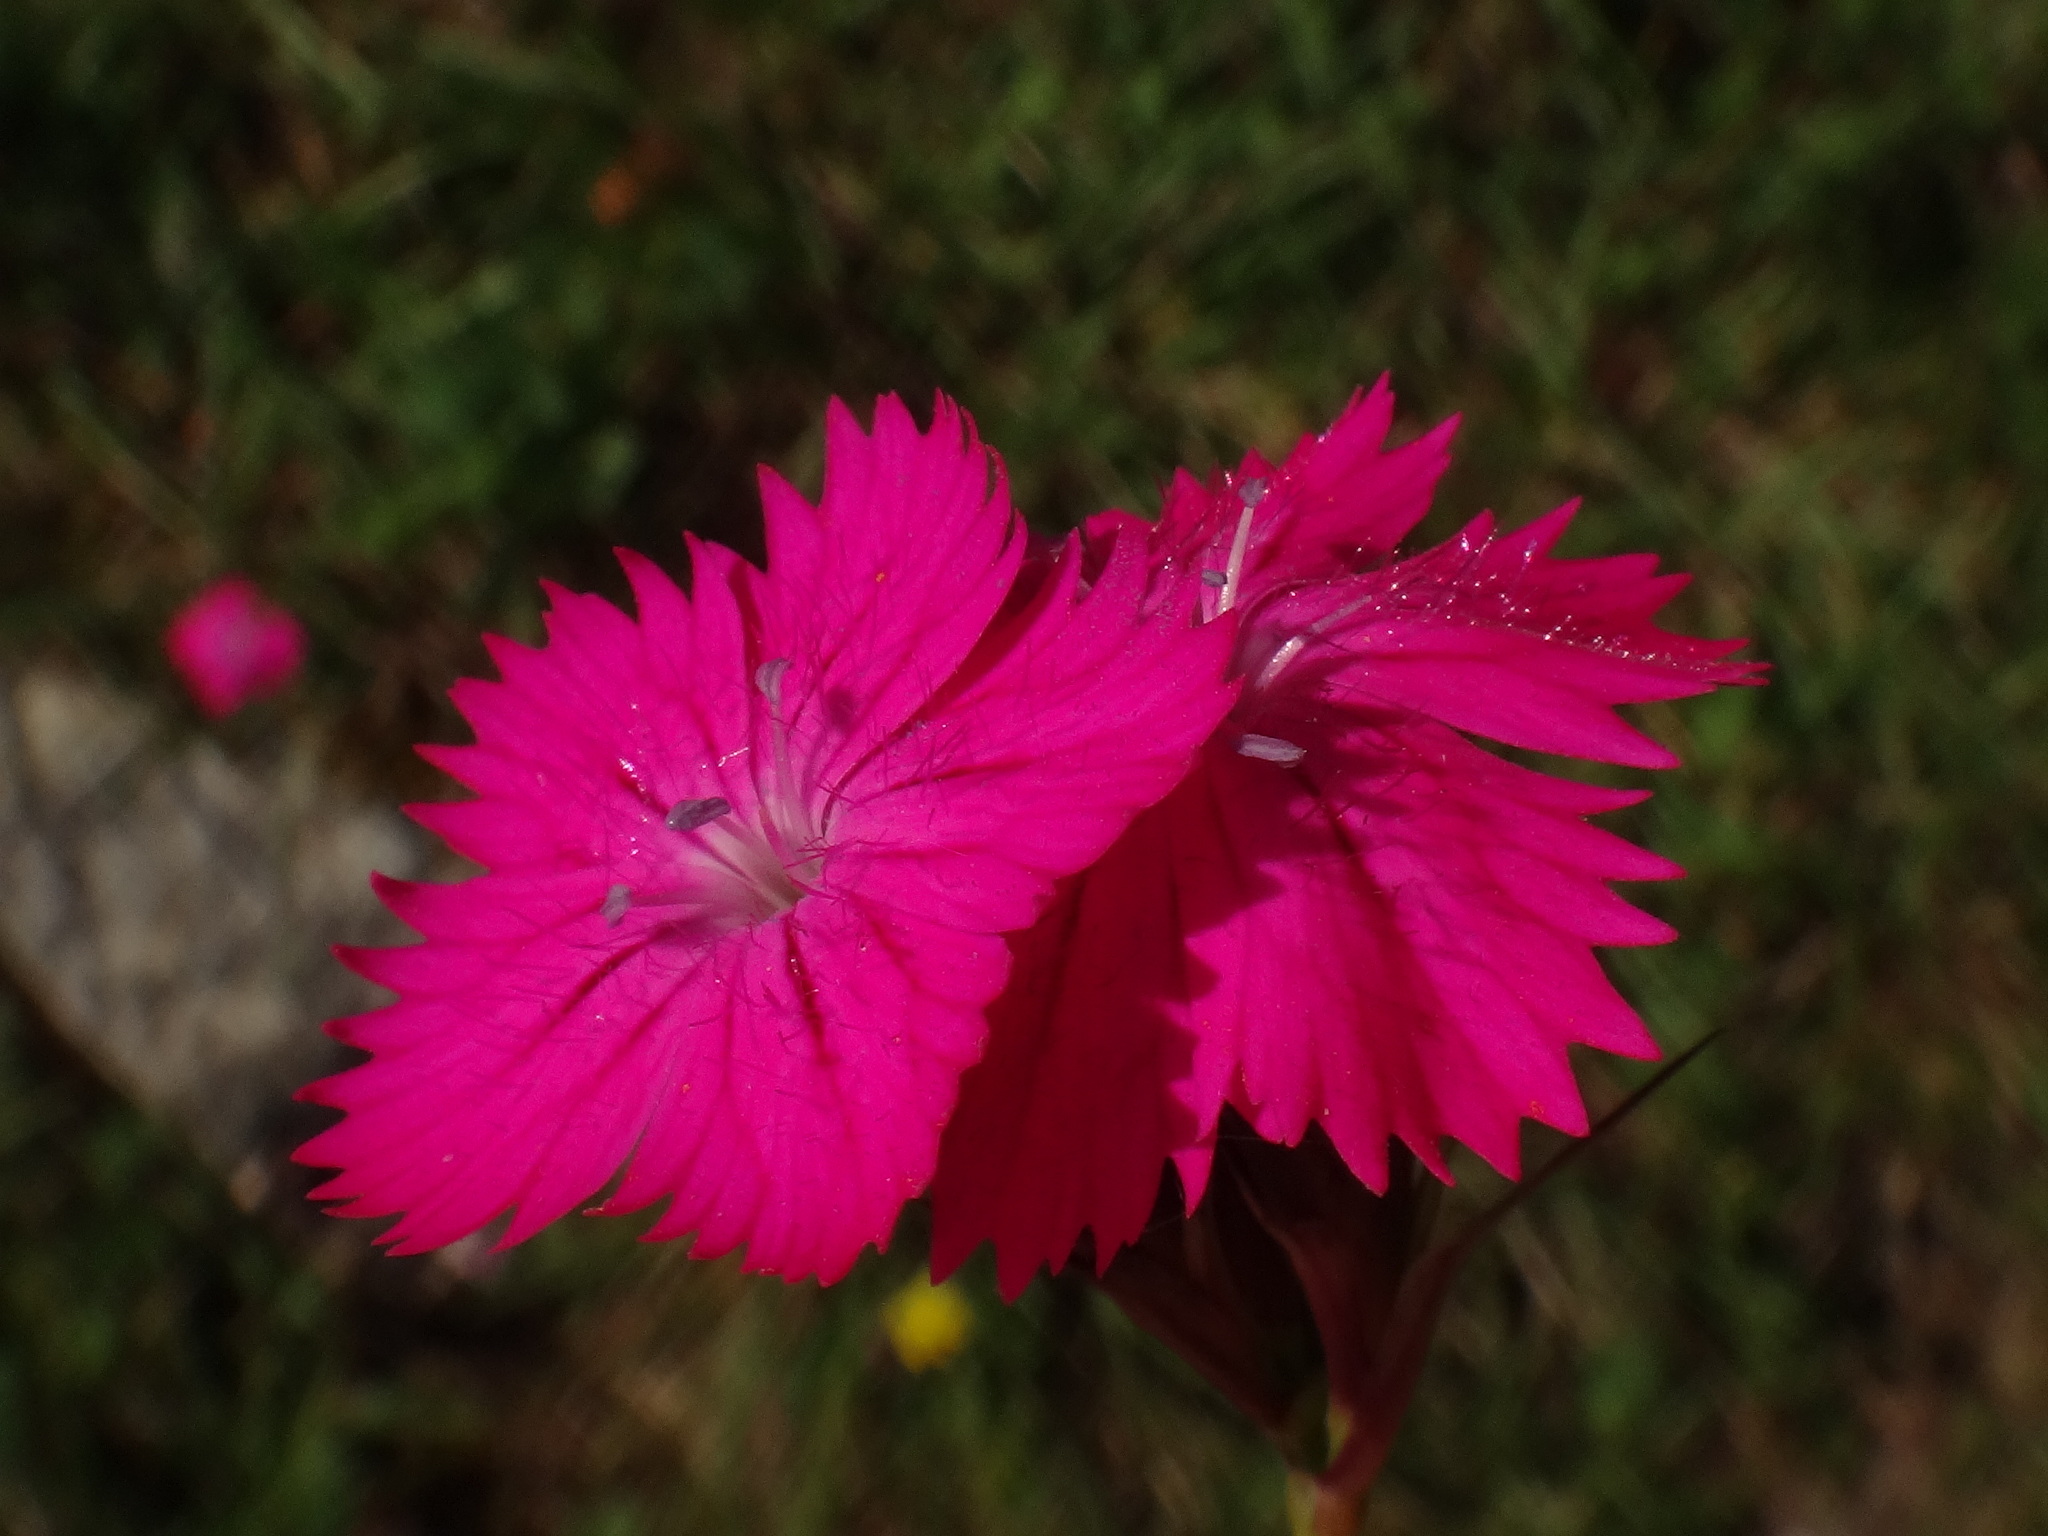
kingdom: Plantae
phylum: Tracheophyta
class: Magnoliopsida
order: Caryophyllales
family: Caryophyllaceae
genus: Dianthus
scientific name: Dianthus carthusianorum
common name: Carthusian pink
